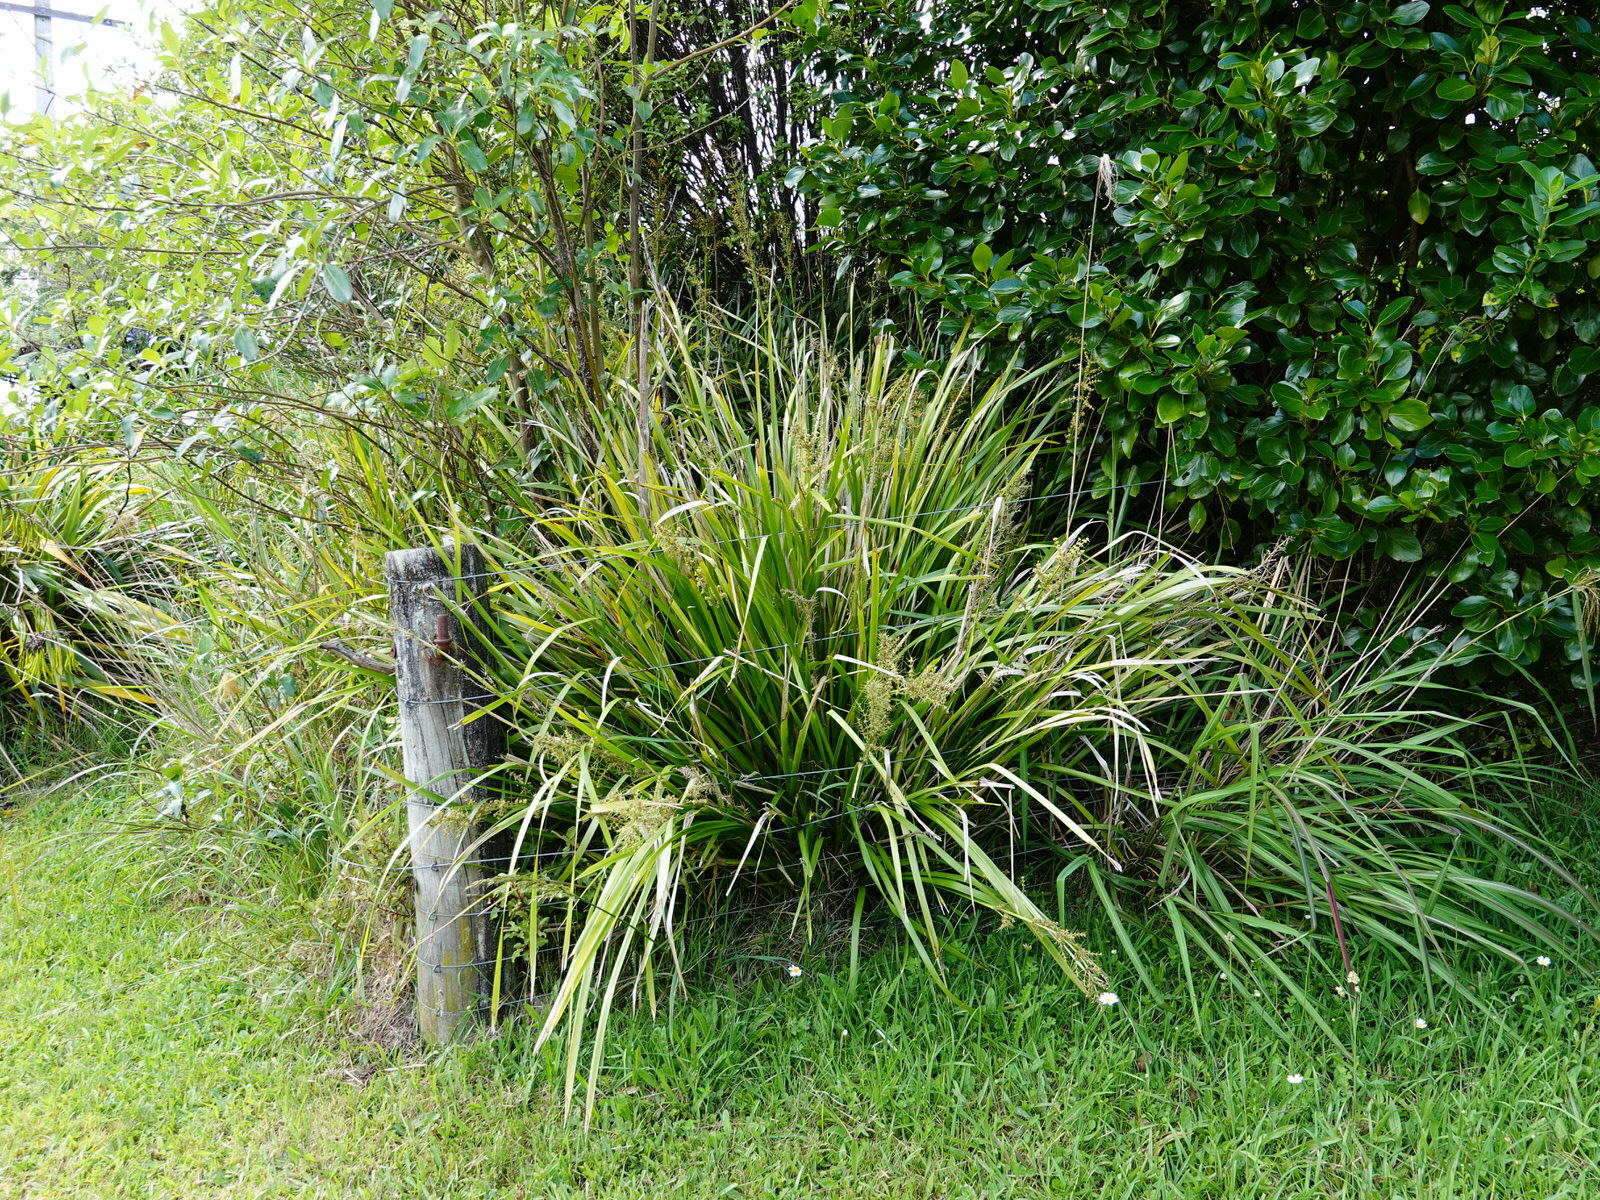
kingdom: Plantae
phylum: Tracheophyta
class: Liliopsida
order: Asparagales
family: Asparagaceae
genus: Lomandra
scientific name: Lomandra longifolia
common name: Longleaf mat-rush
